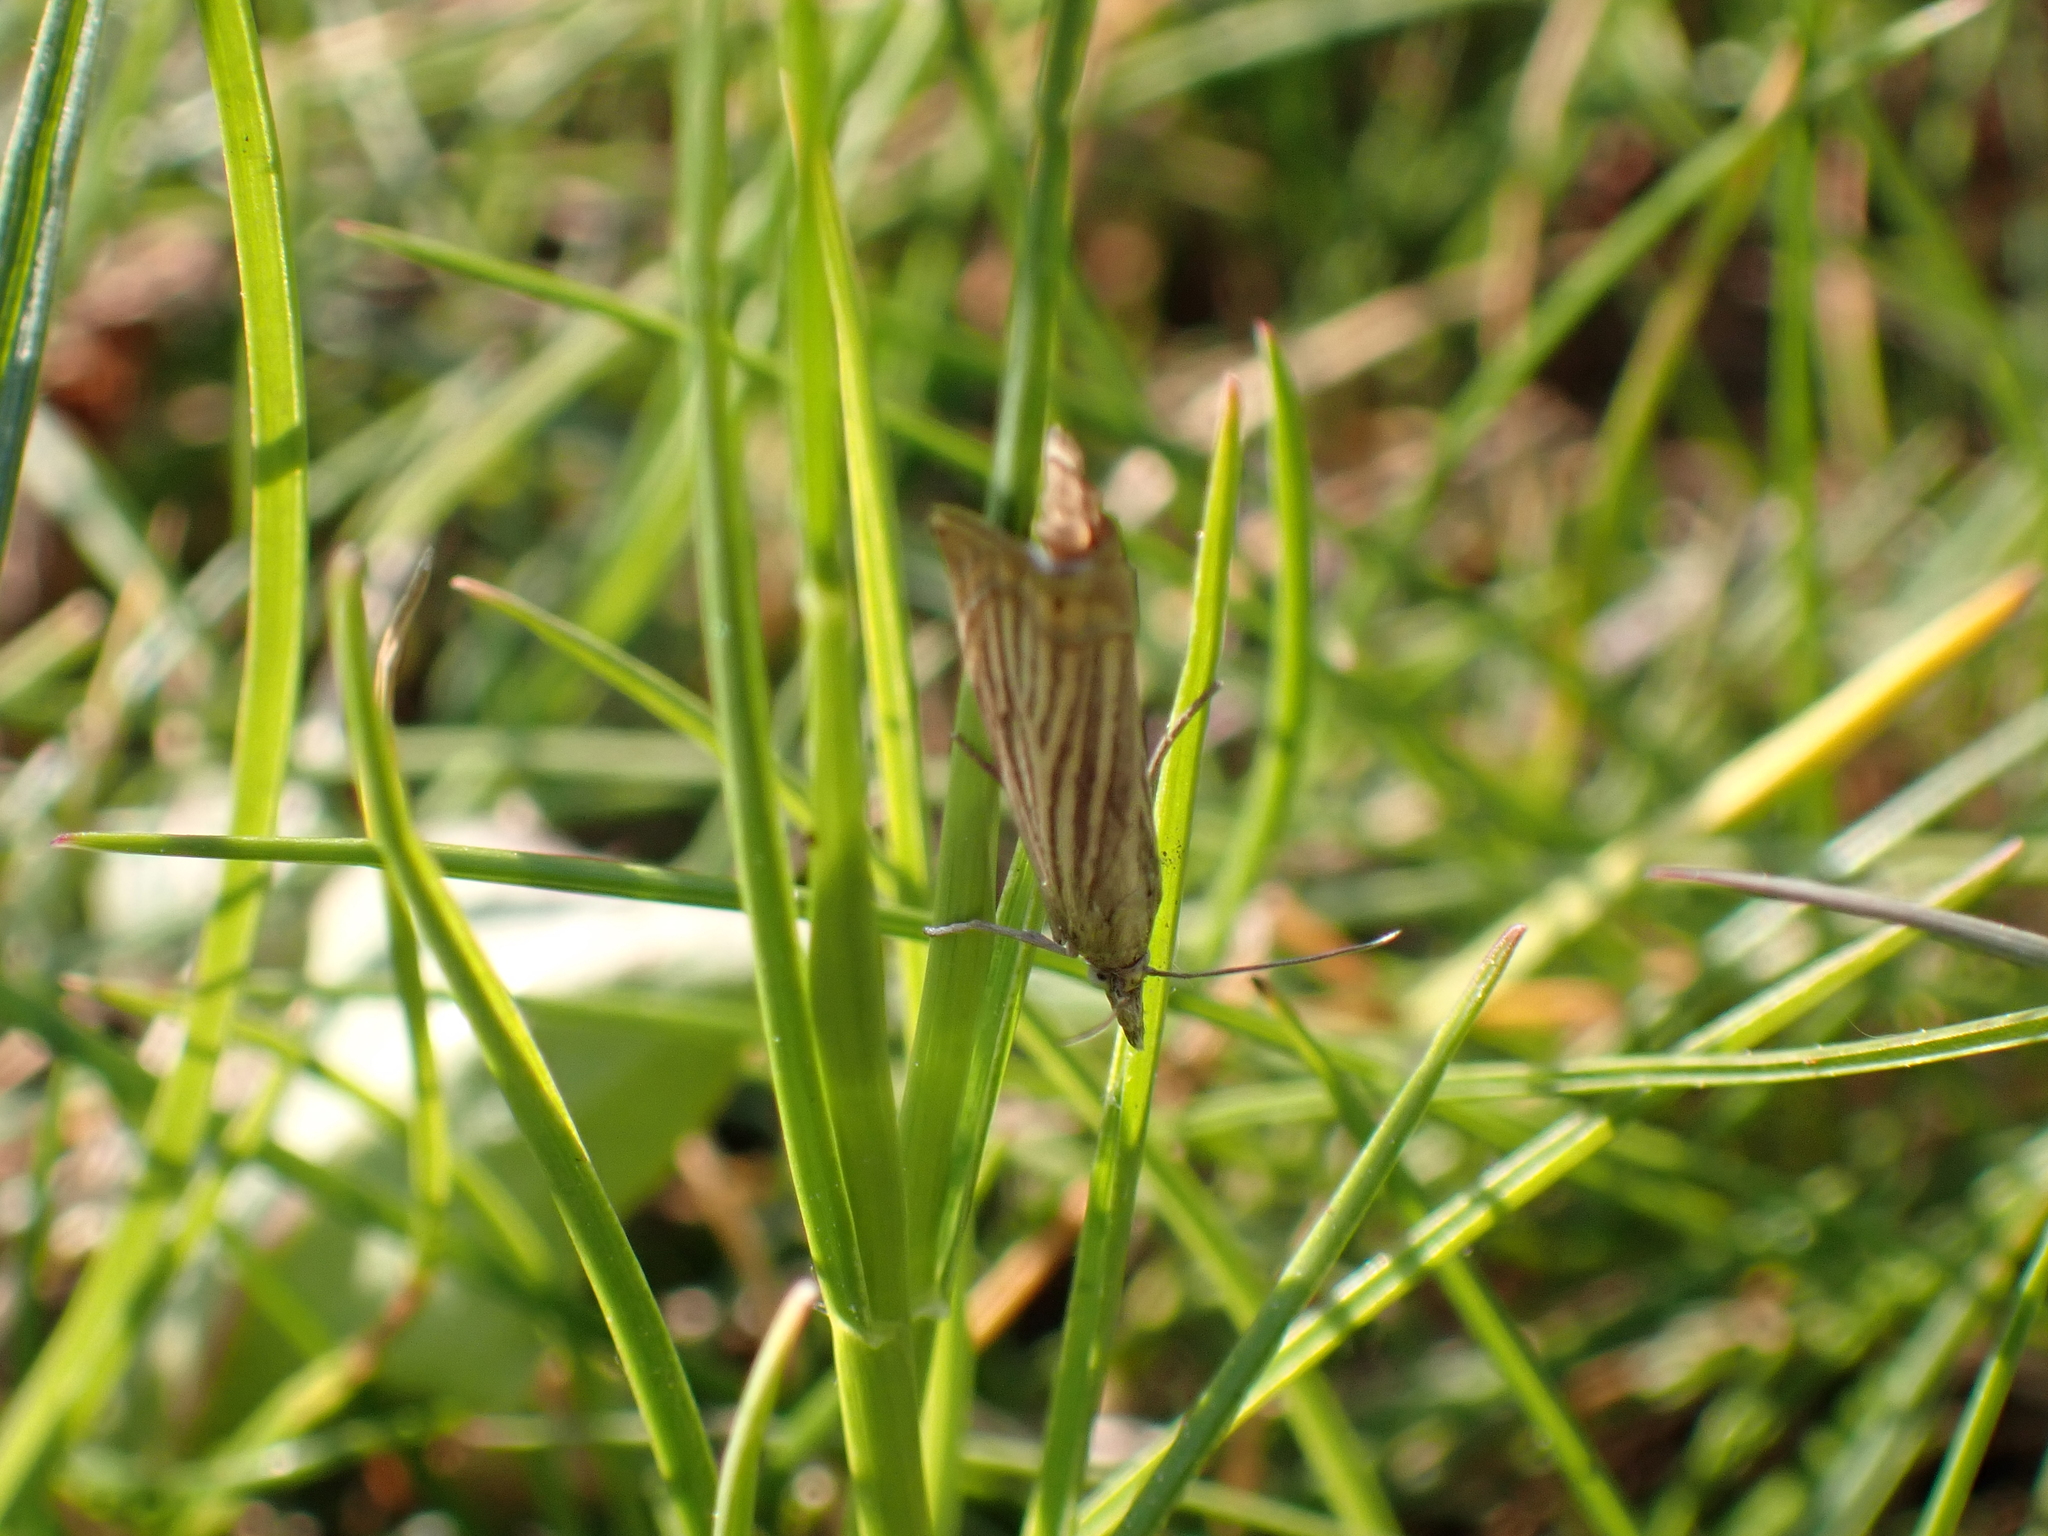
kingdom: Animalia
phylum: Arthropoda
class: Insecta
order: Lepidoptera
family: Crambidae
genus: Chrysoteuchia
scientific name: Chrysoteuchia culmella
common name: Garden grass-veneer
